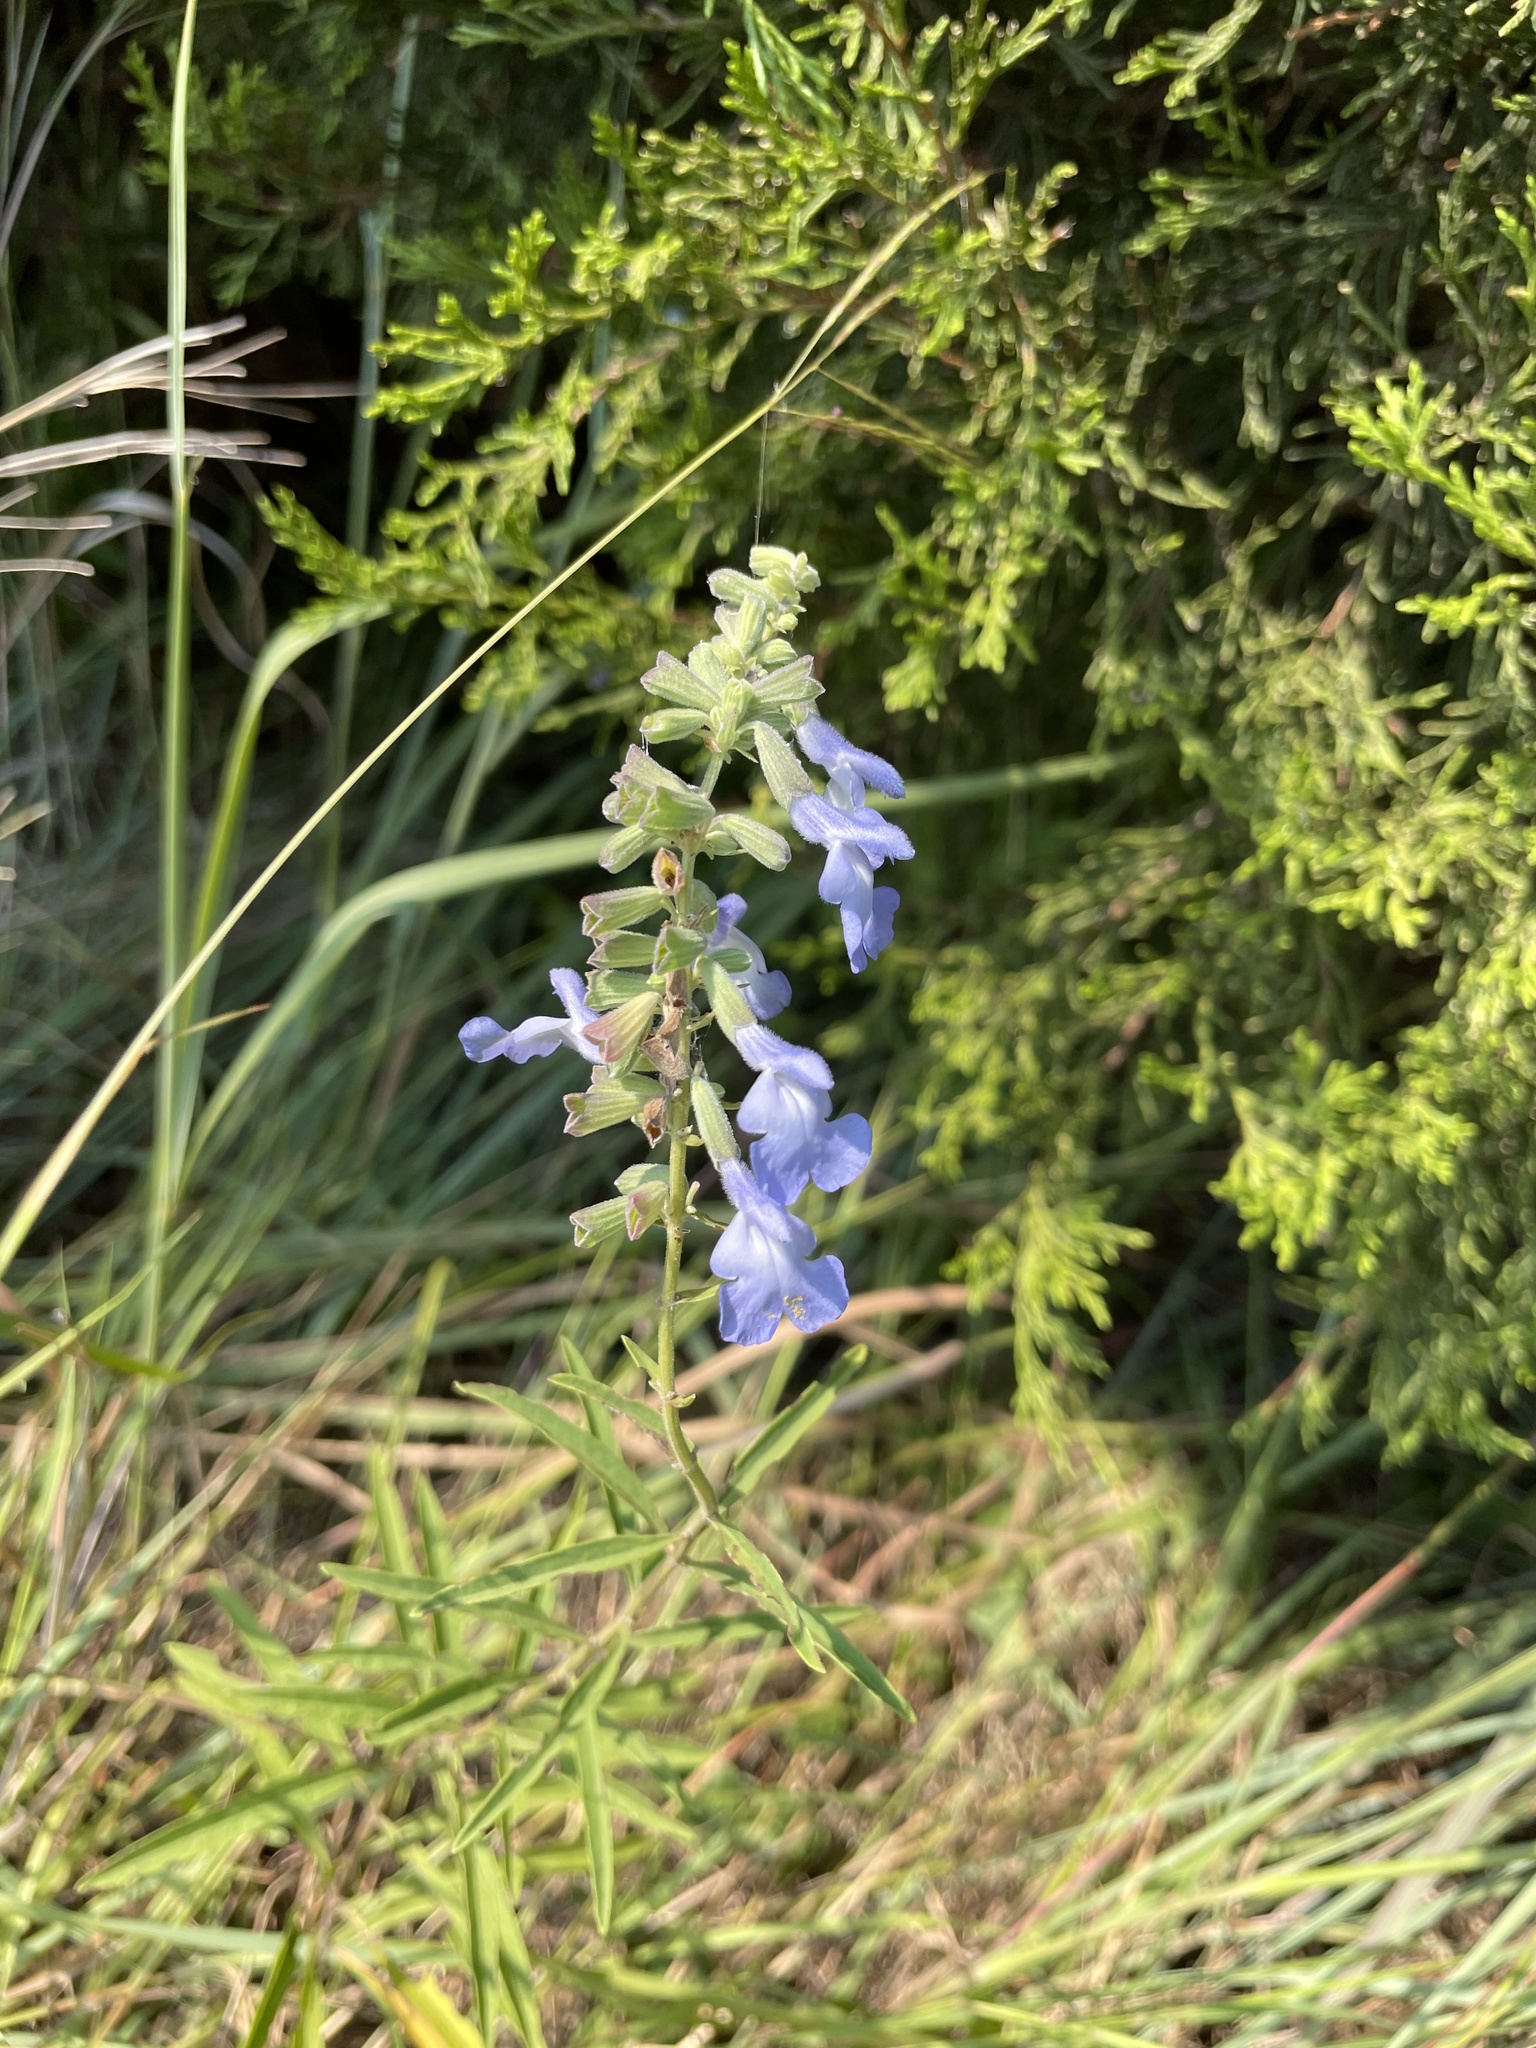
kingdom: Plantae
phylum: Tracheophyta
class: Magnoliopsida
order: Lamiales
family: Lamiaceae
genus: Salvia
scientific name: Salvia azurea
